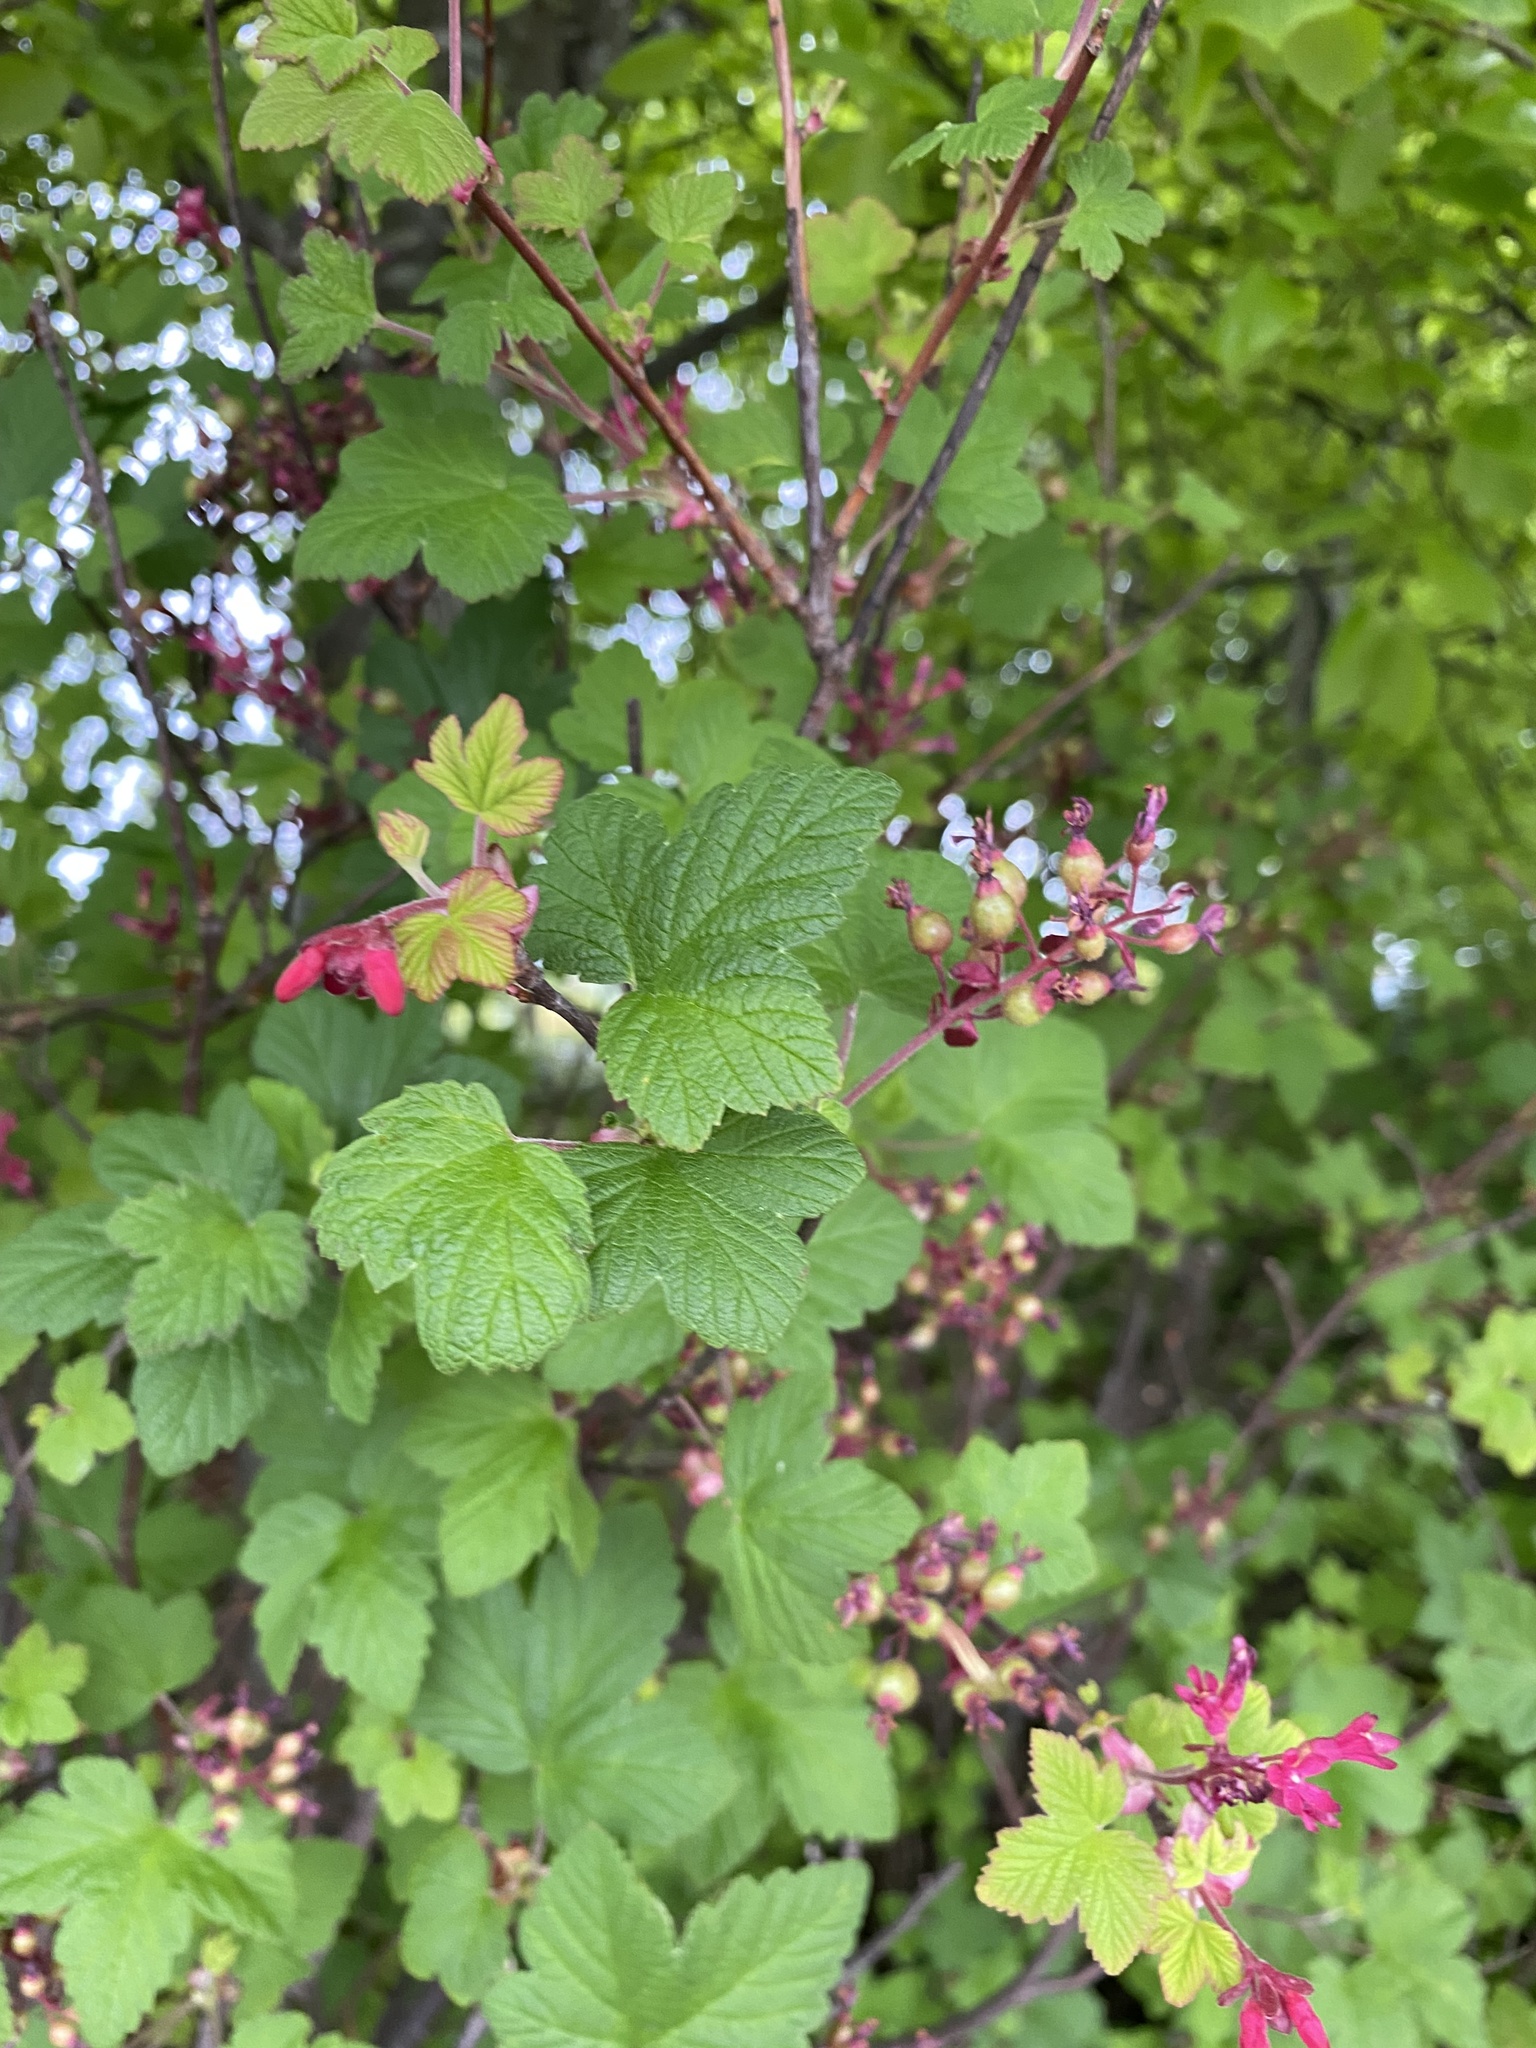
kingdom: Plantae
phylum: Tracheophyta
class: Magnoliopsida
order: Saxifragales
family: Grossulariaceae
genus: Ribes
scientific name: Ribes sanguineum
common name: Flowering currant
